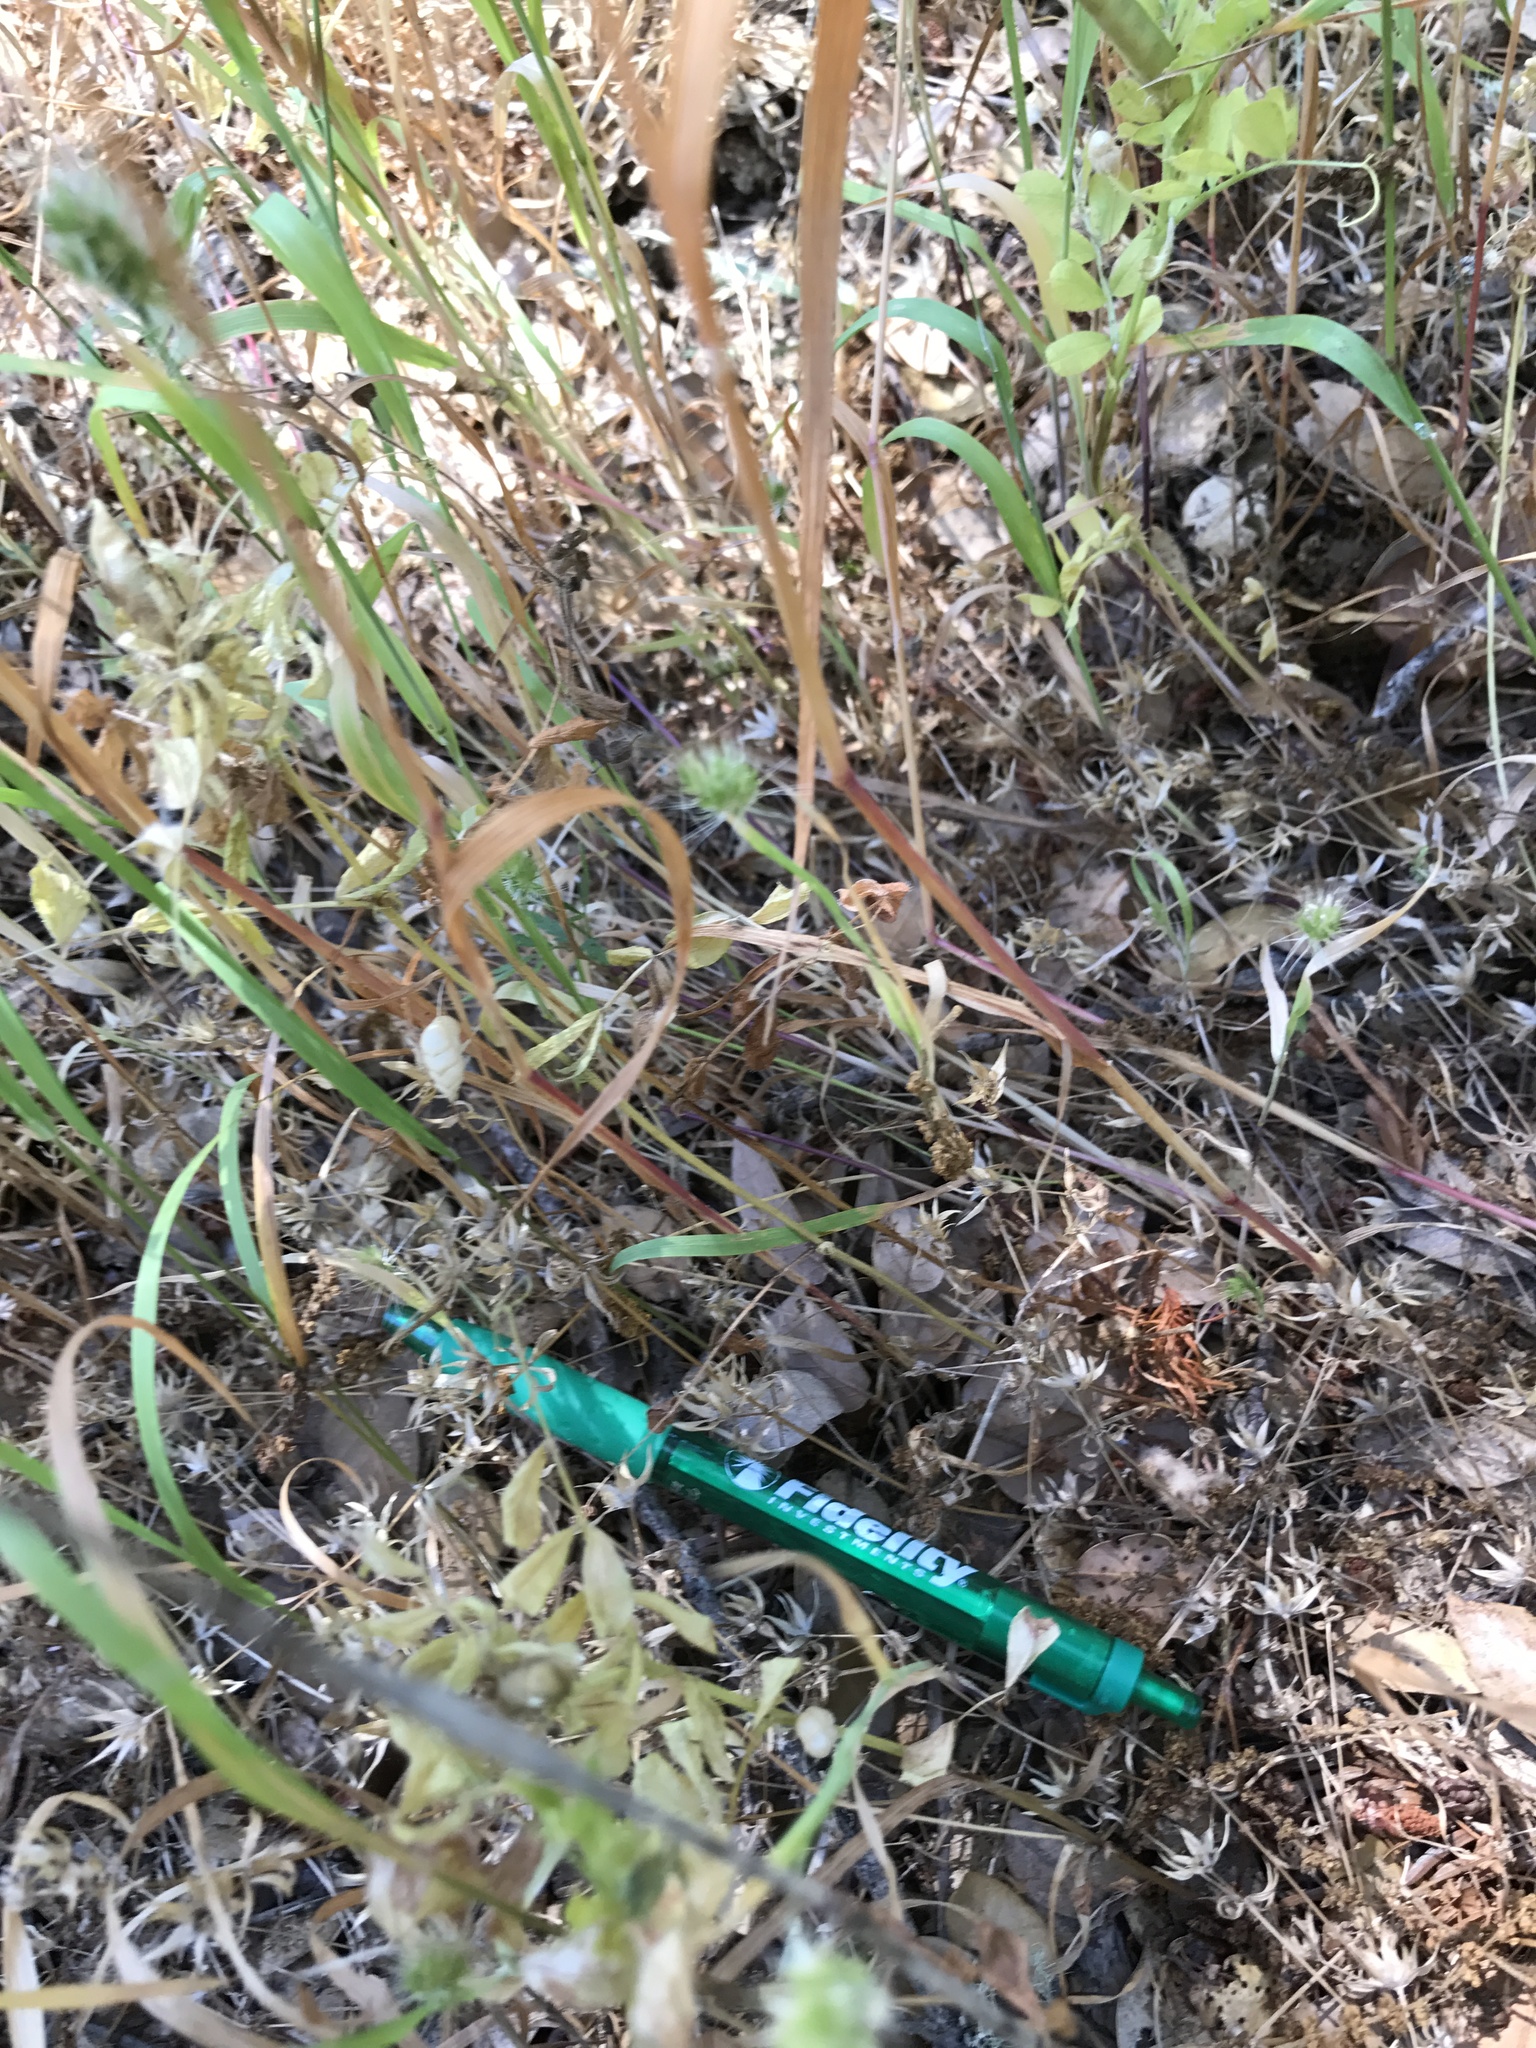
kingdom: Plantae
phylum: Tracheophyta
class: Liliopsida
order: Poales
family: Poaceae
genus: Briza
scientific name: Briza maxima
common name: Big quakinggrass
